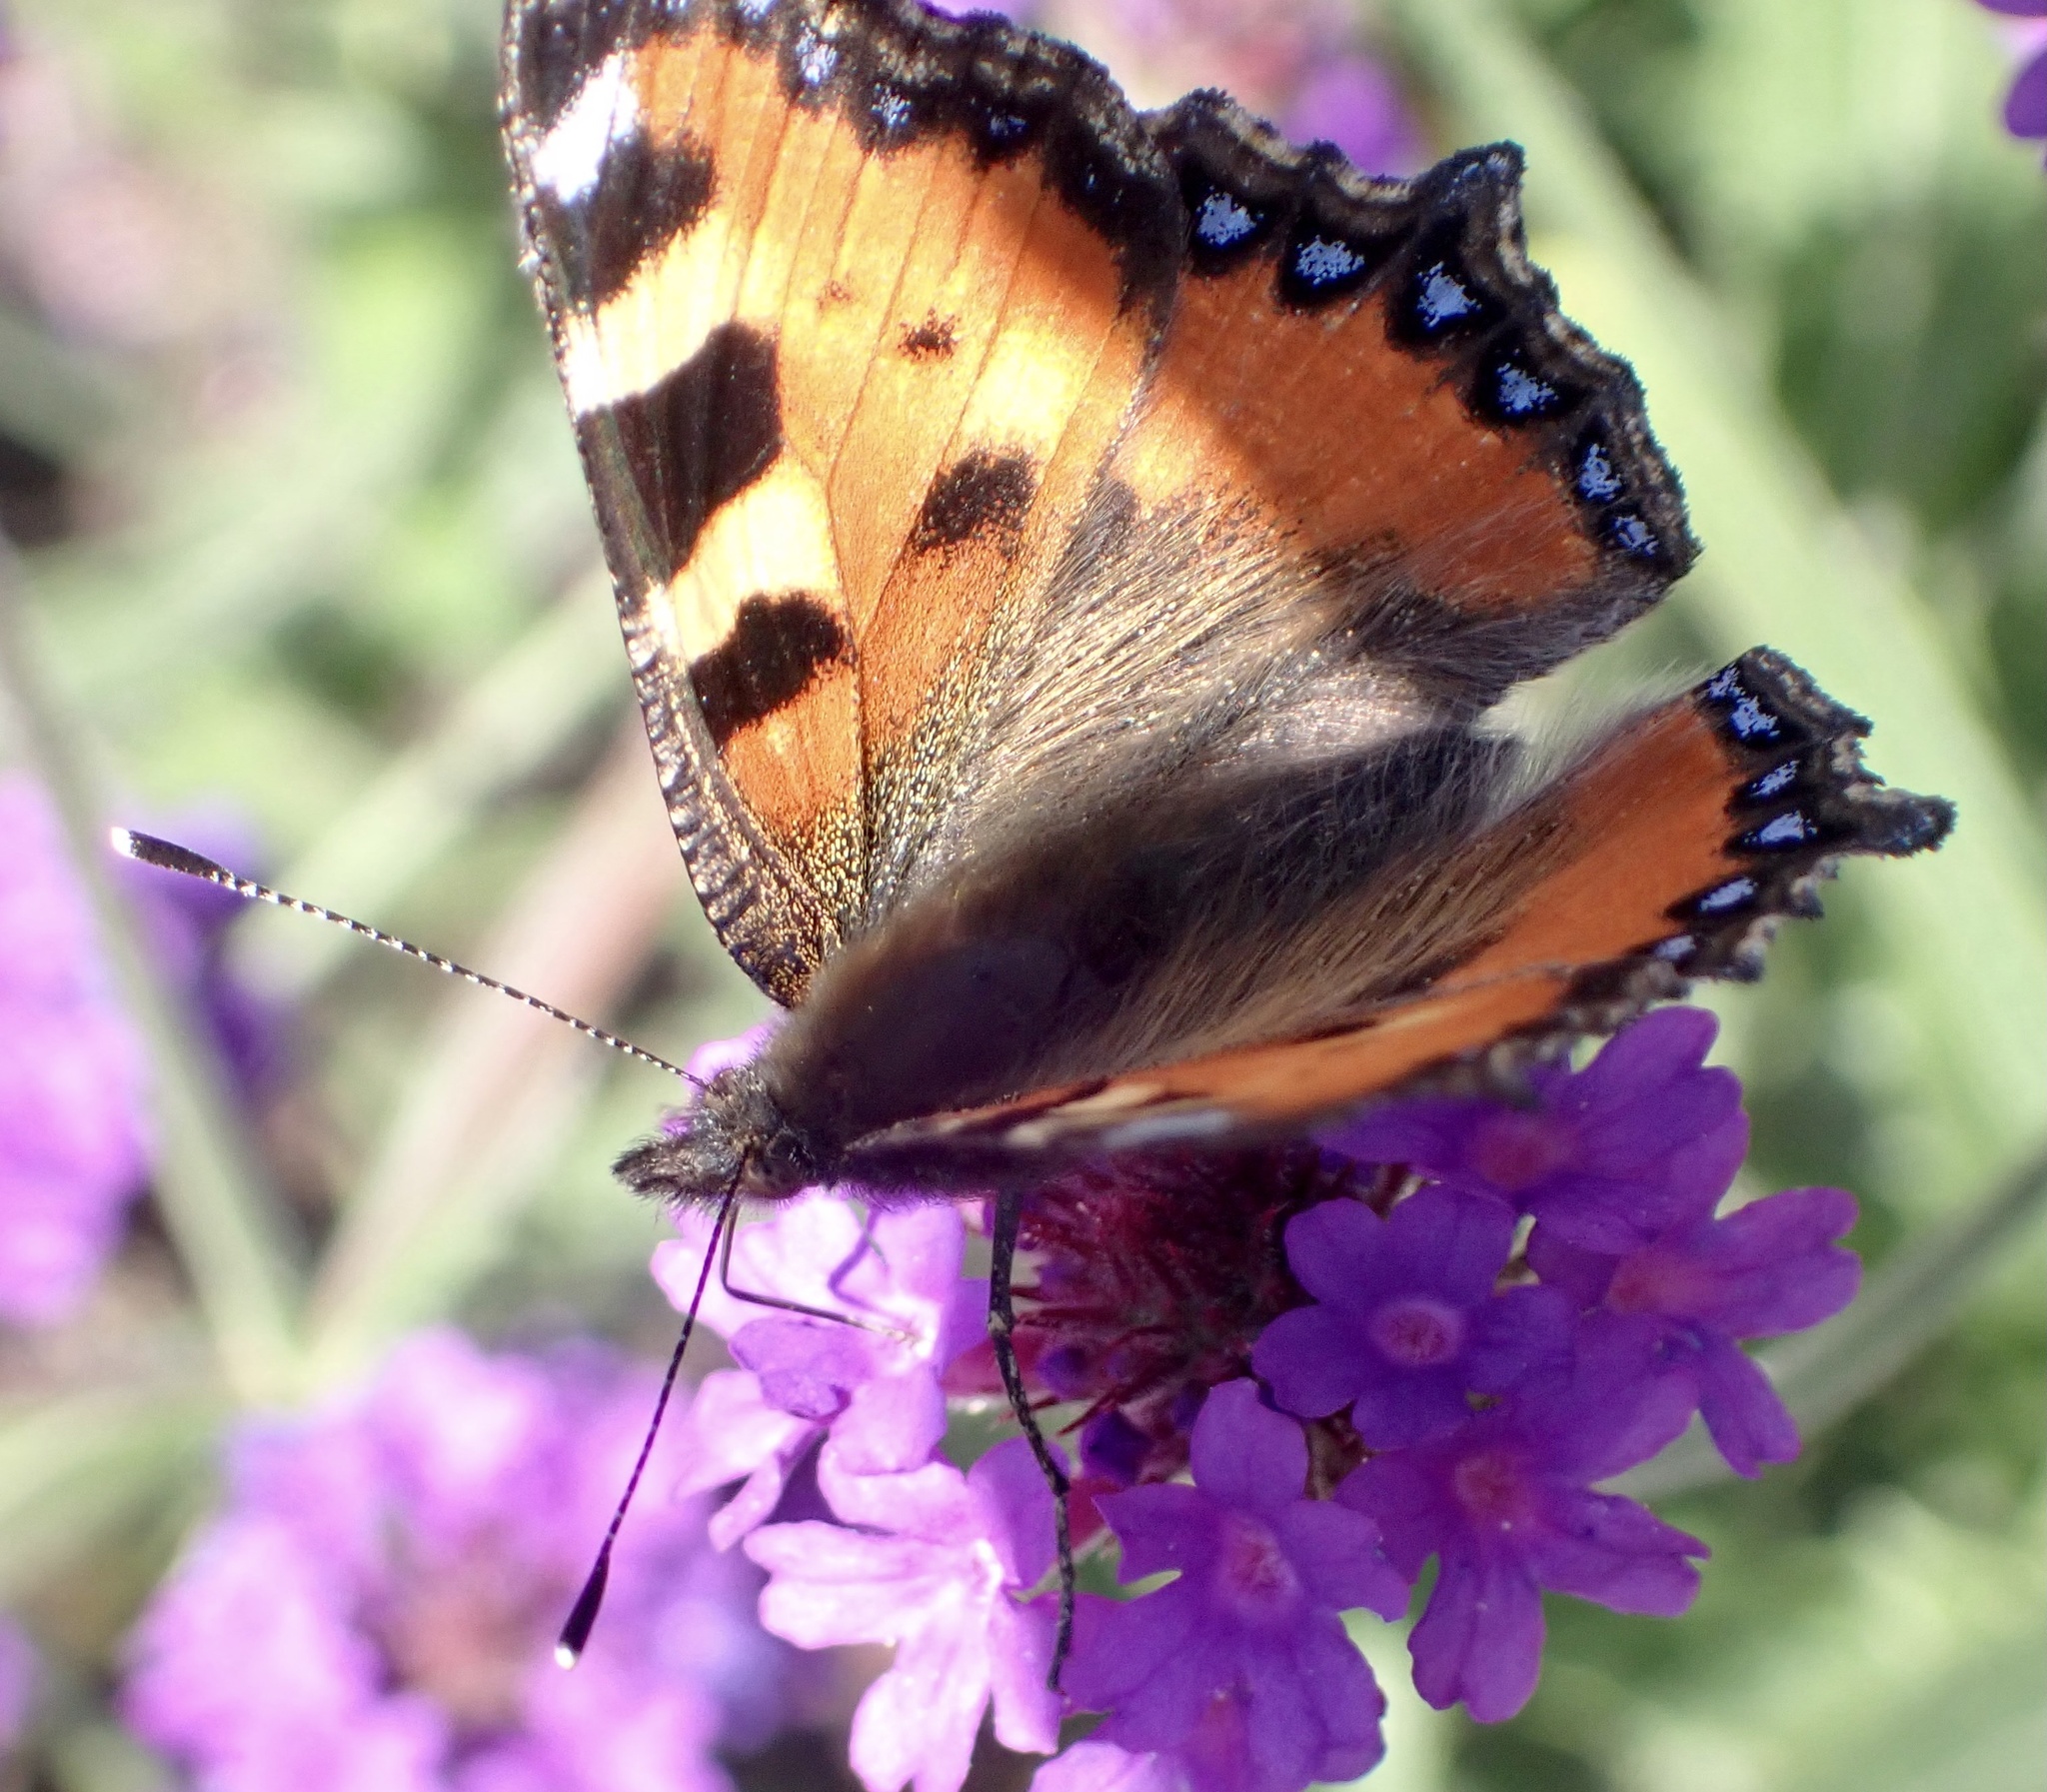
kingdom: Animalia
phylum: Arthropoda
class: Insecta
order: Lepidoptera
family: Nymphalidae
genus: Aglais
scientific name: Aglais urticae
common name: Small tortoiseshell
